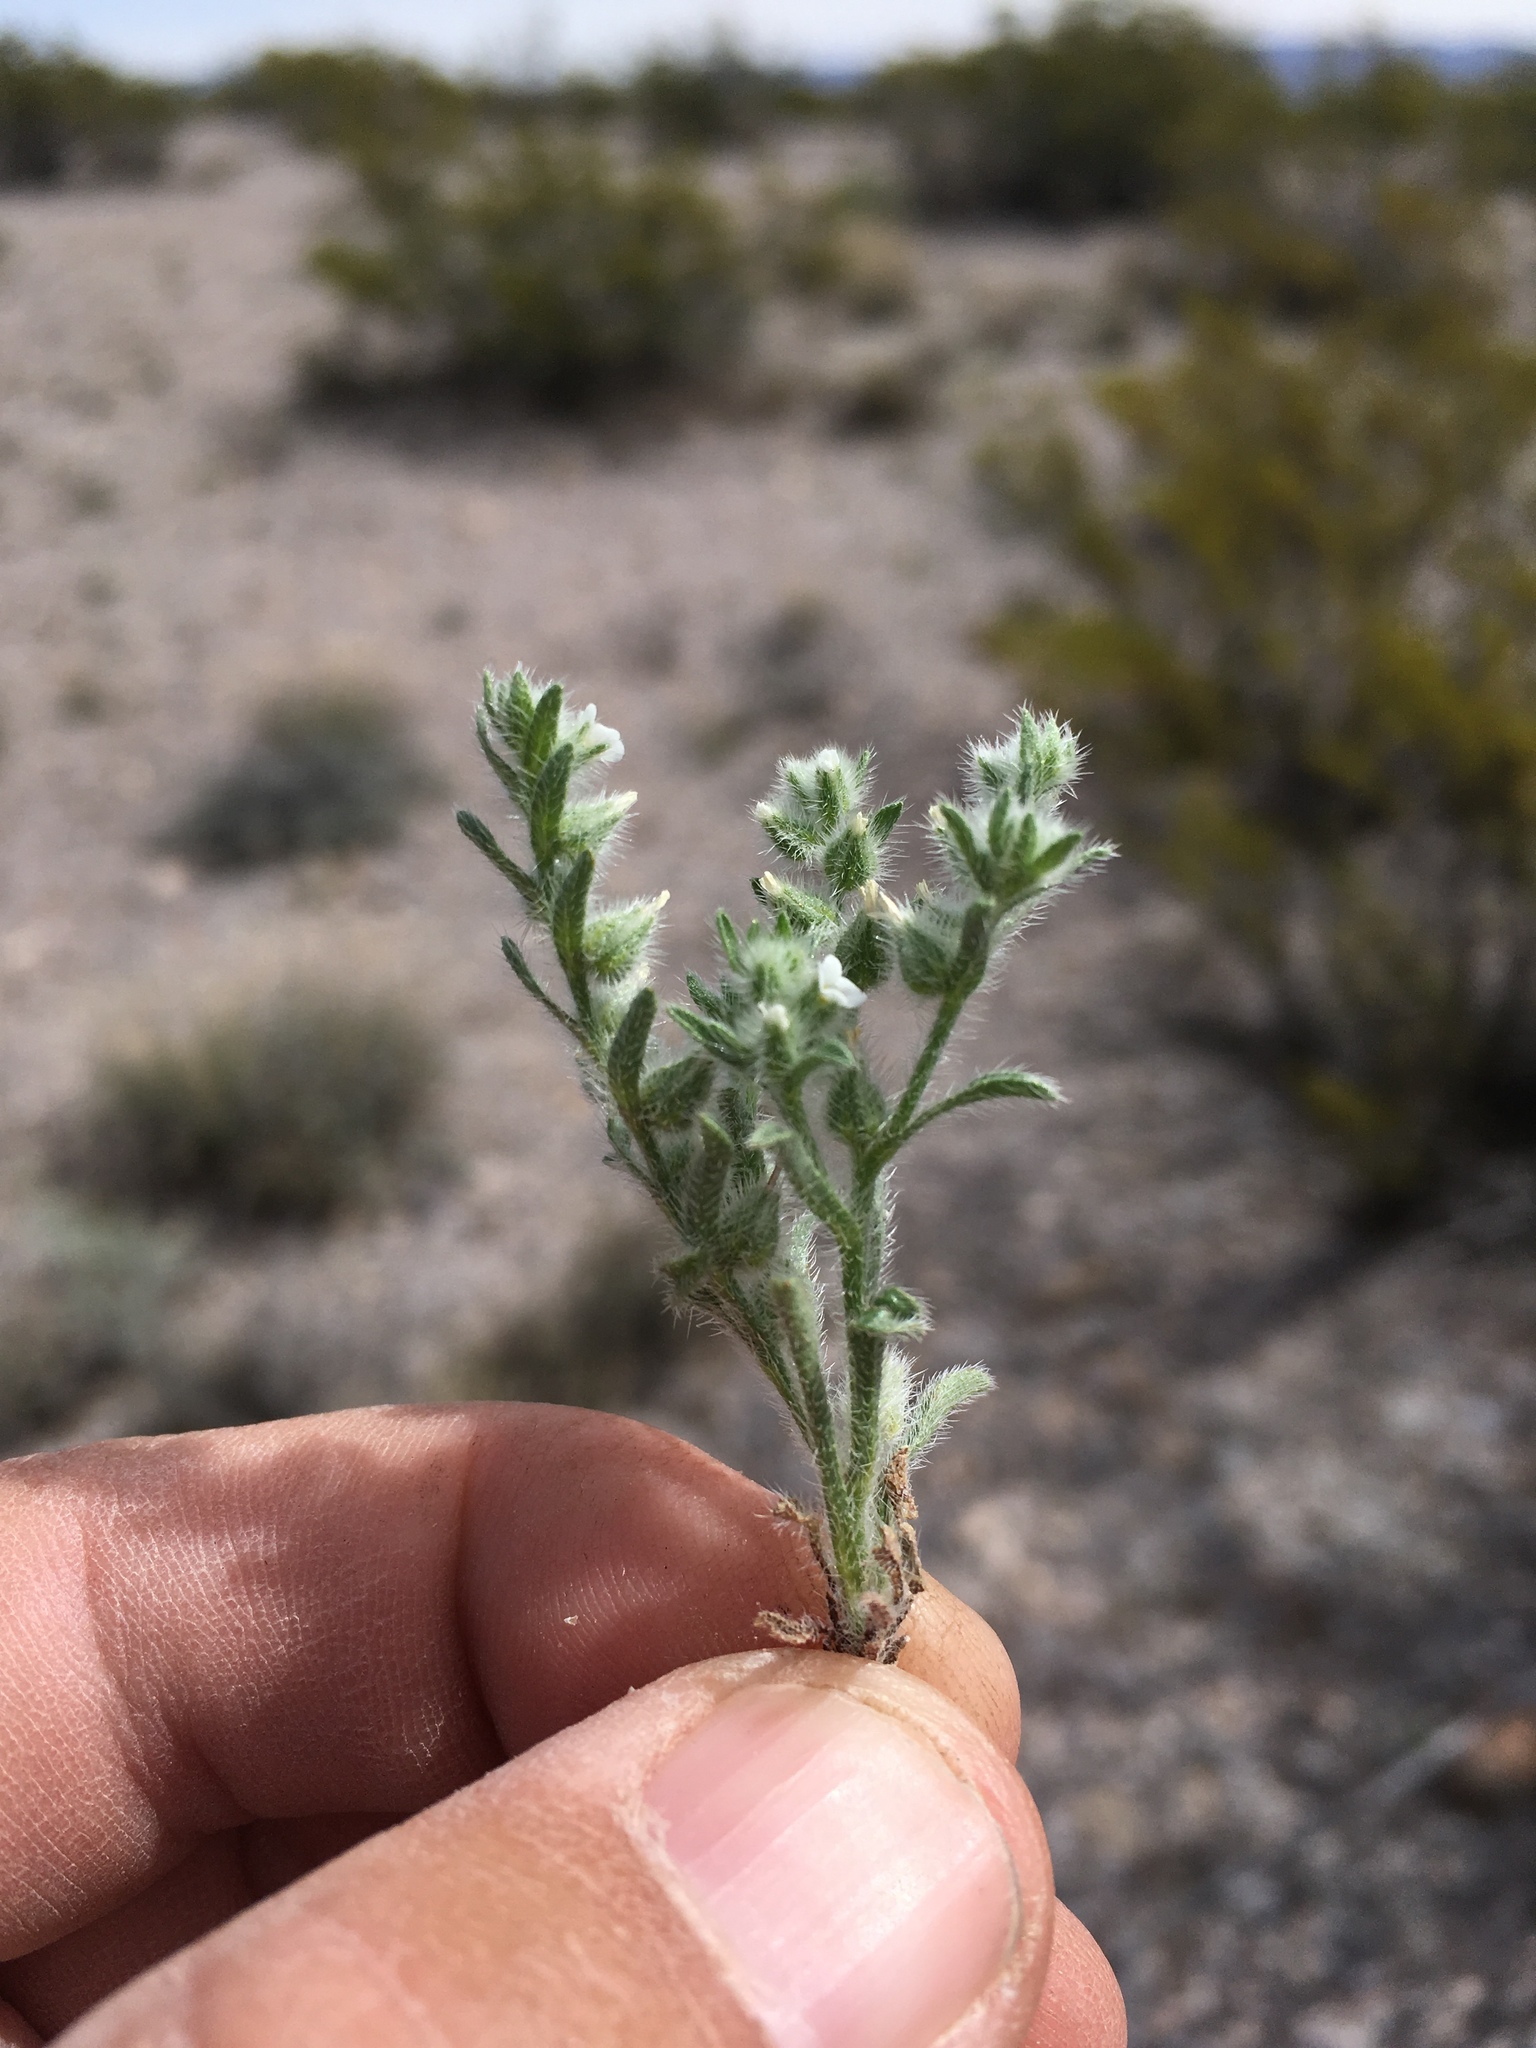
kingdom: Plantae
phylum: Tracheophyta
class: Magnoliopsida
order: Boraginales
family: Boraginaceae
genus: Cryptantha
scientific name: Cryptantha minima
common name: Little cat's-eye
